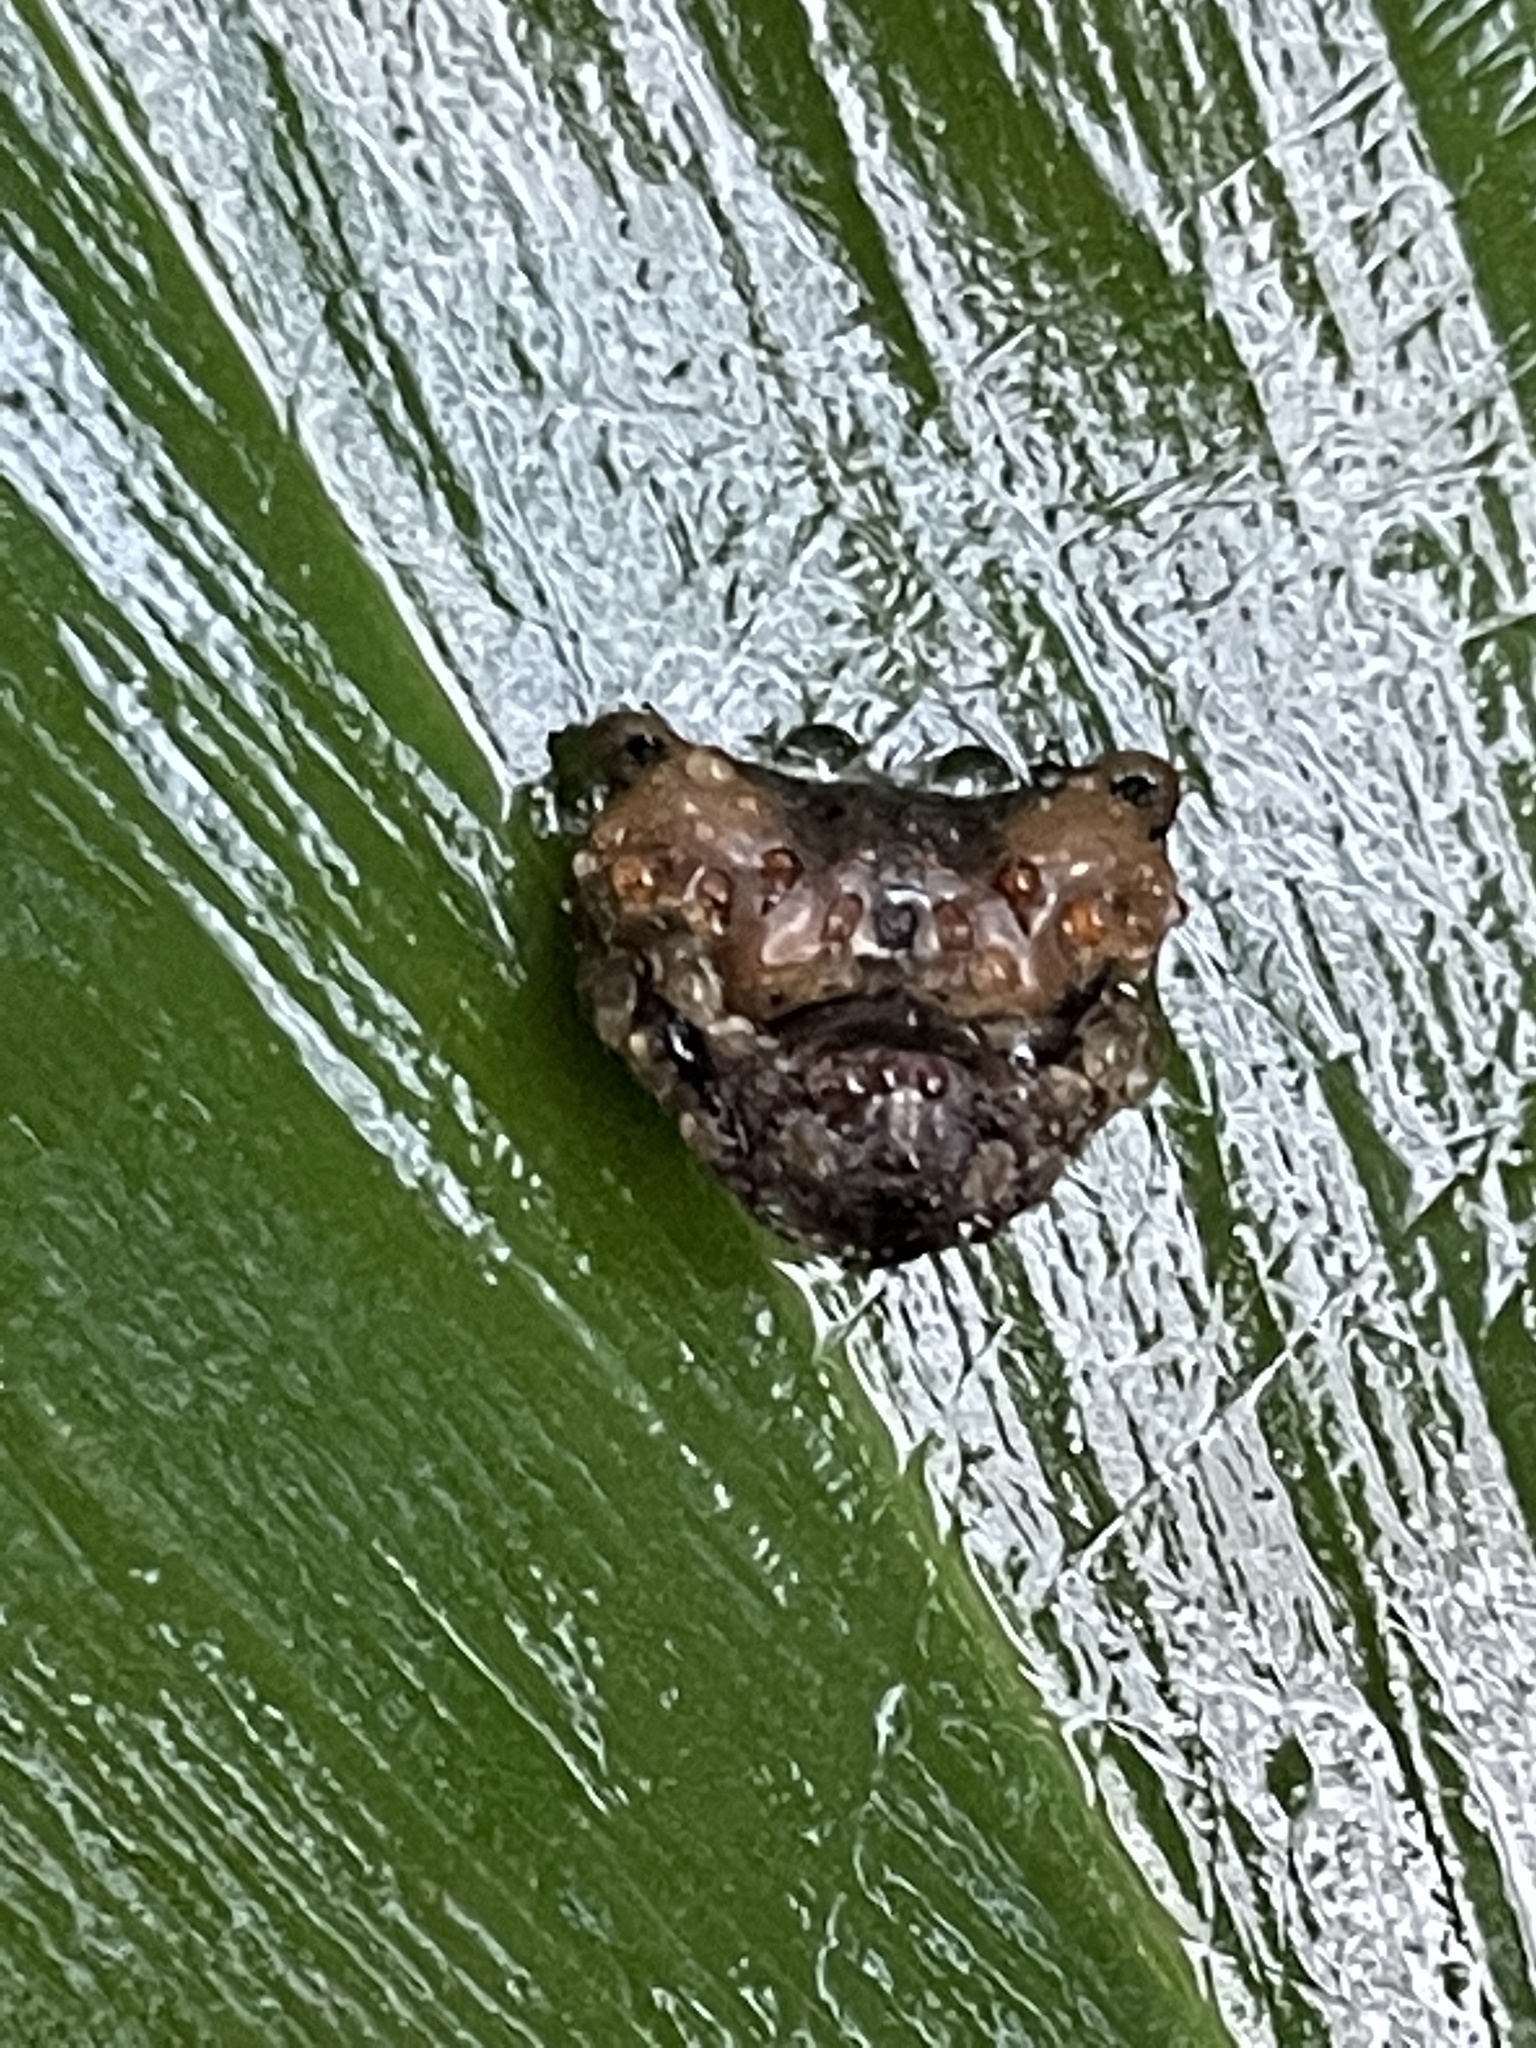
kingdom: Animalia
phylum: Arthropoda
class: Arachnida
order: Araneae
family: Arkyidae
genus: Arkys
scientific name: Arkys curtulus
